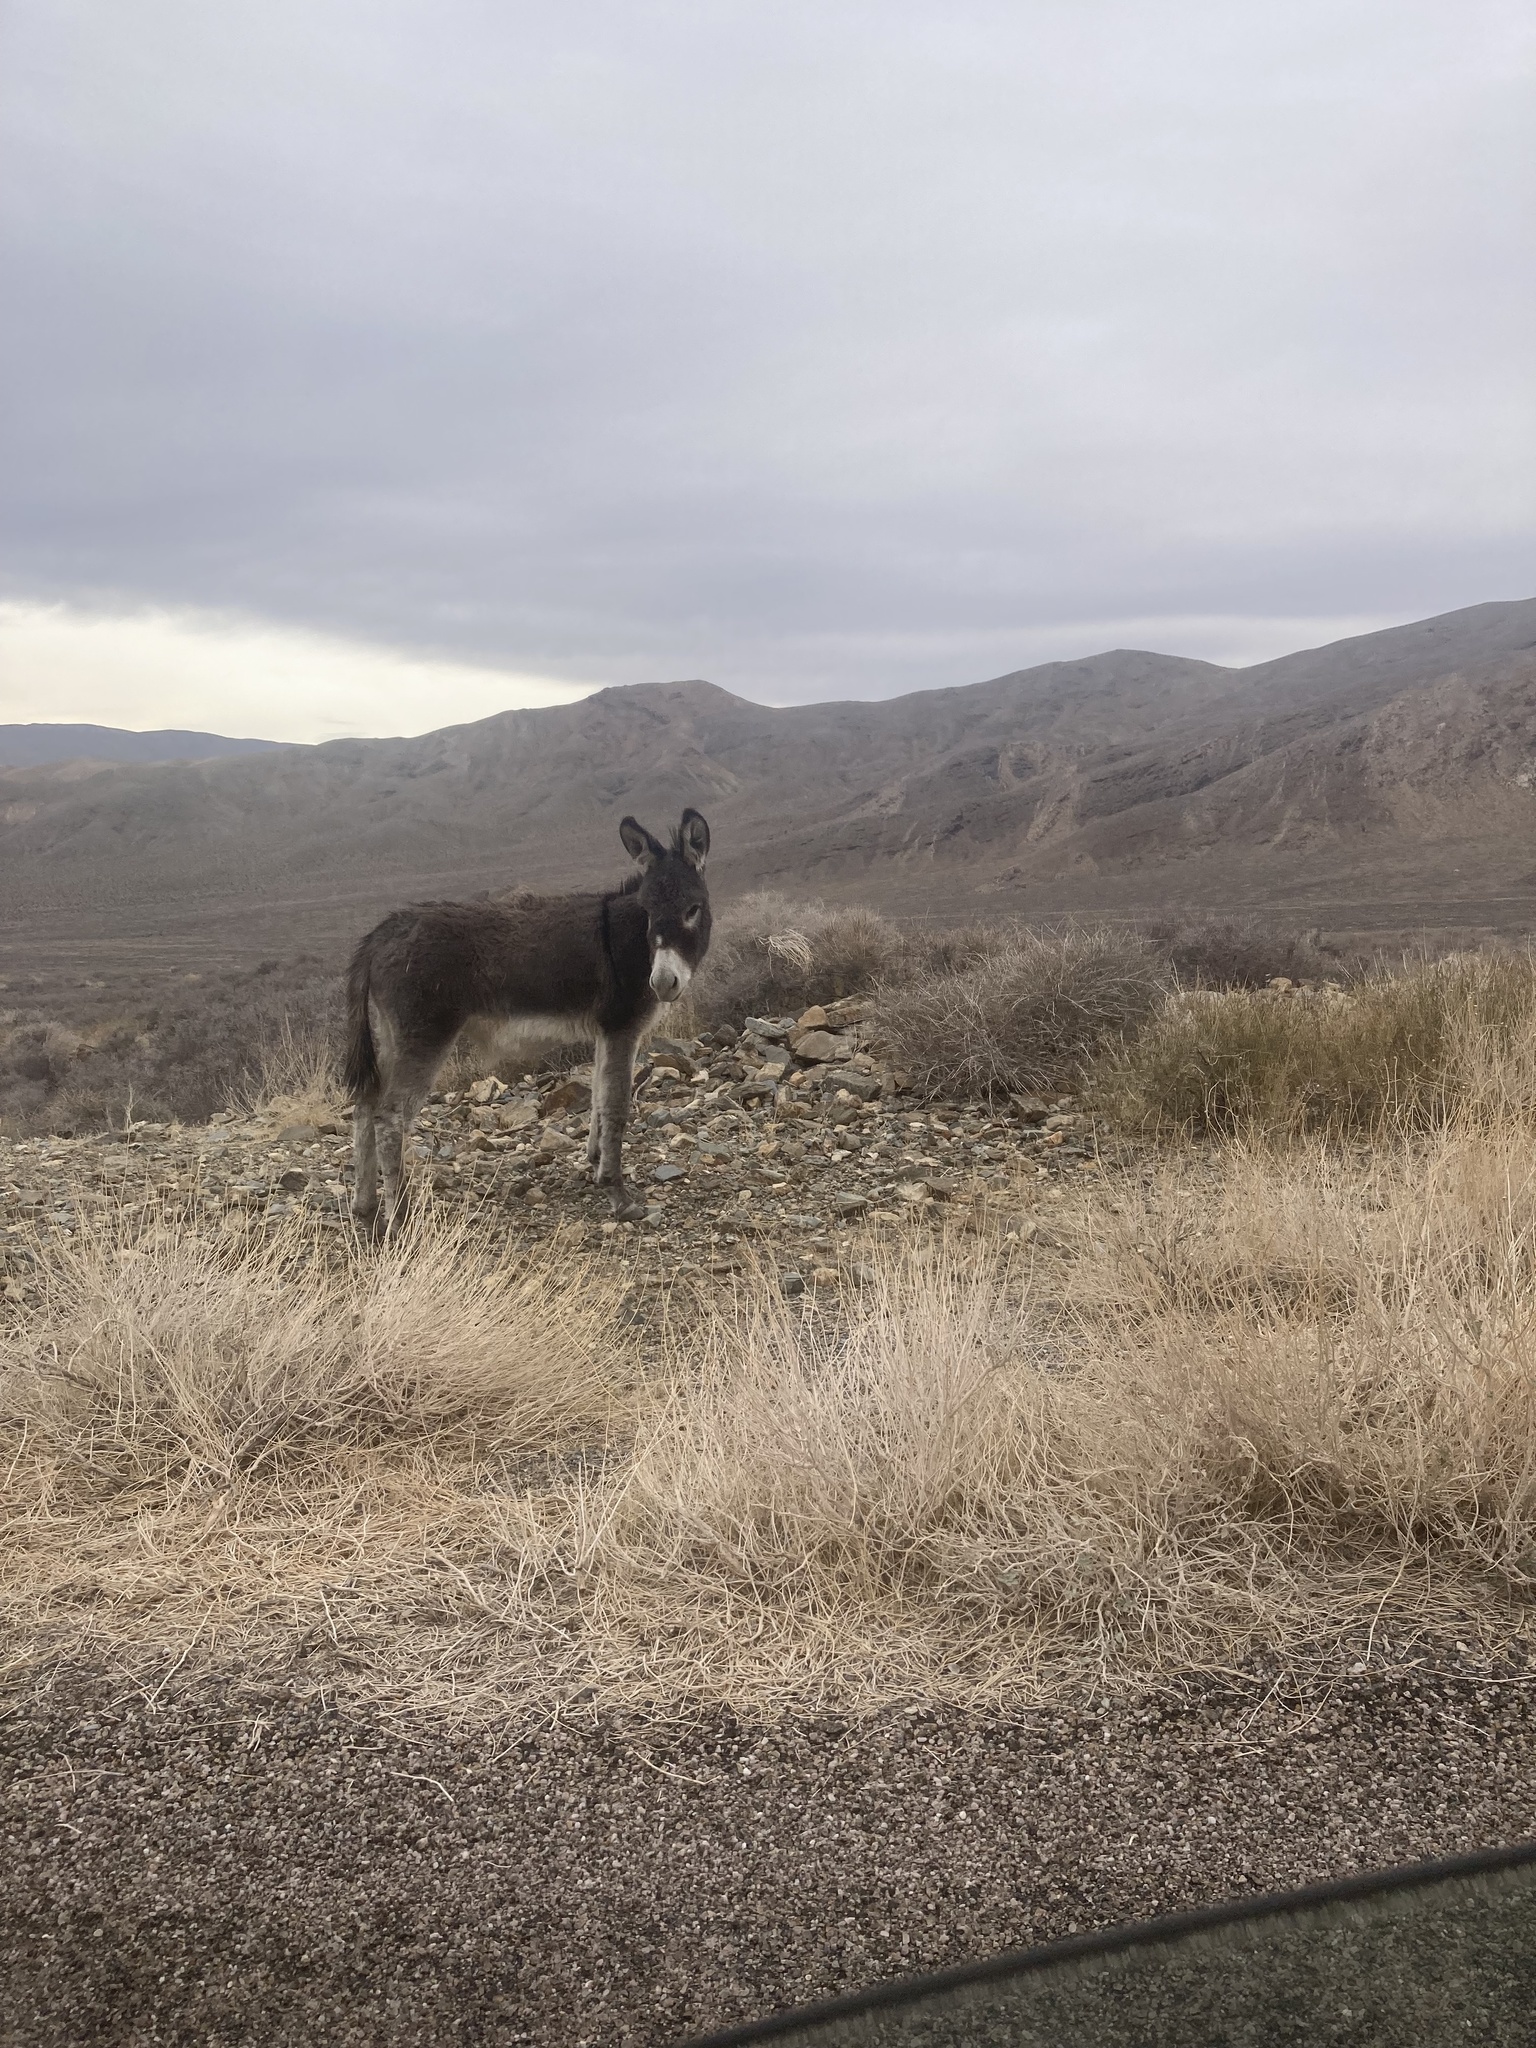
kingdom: Animalia
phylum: Chordata
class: Mammalia
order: Perissodactyla
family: Equidae
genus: Equus
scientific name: Equus asinus
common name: Ass
